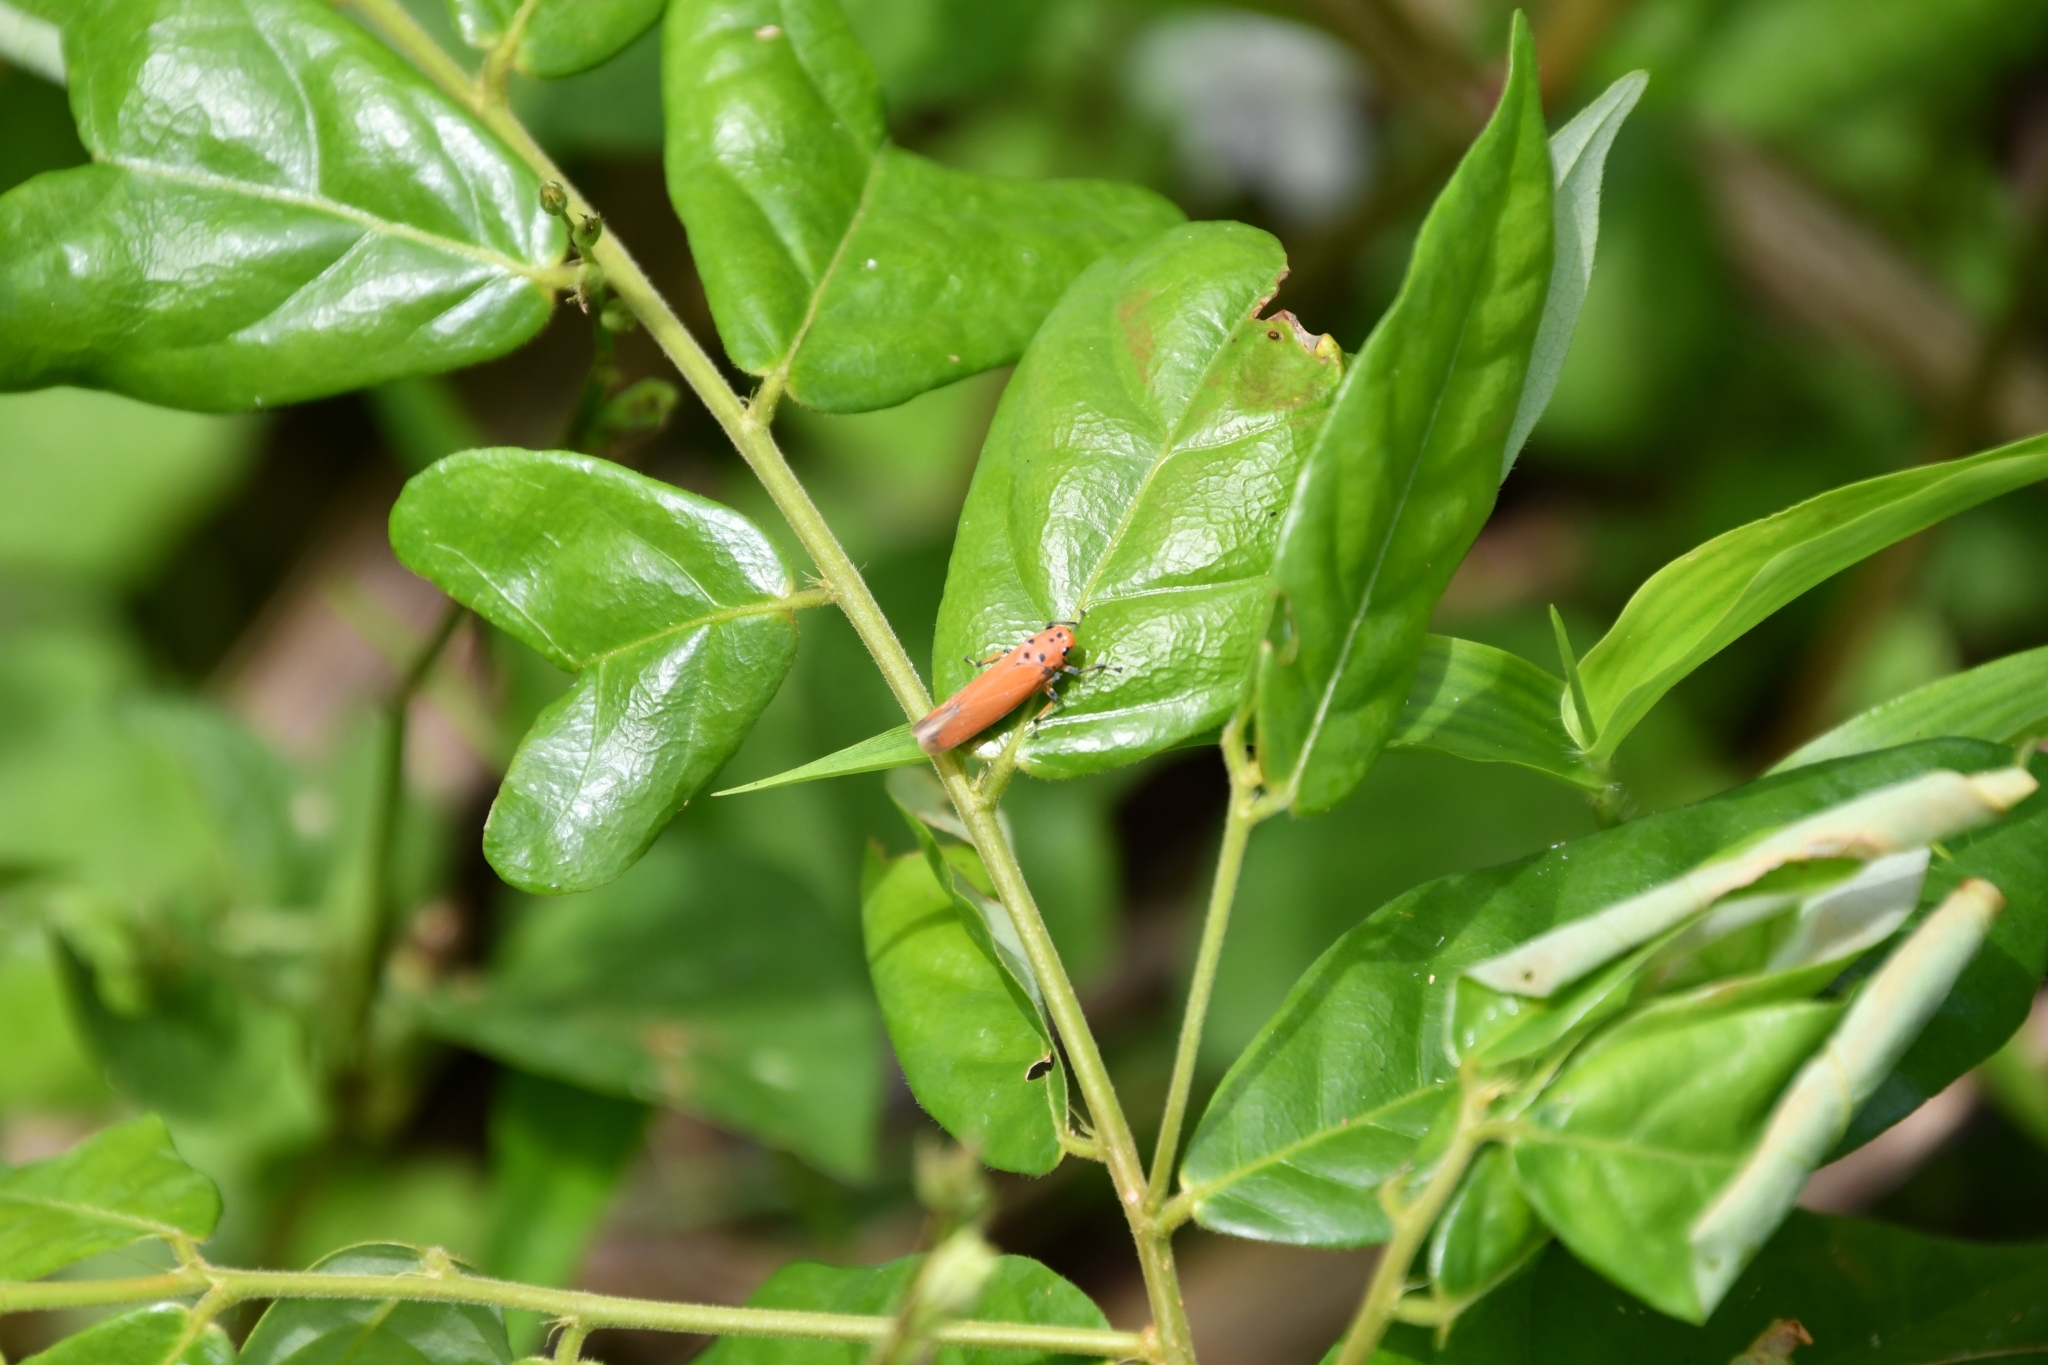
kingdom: Animalia
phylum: Arthropoda
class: Insecta
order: Hemiptera
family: Cicadellidae
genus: Bothrogonia
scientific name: Bothrogonia addita
